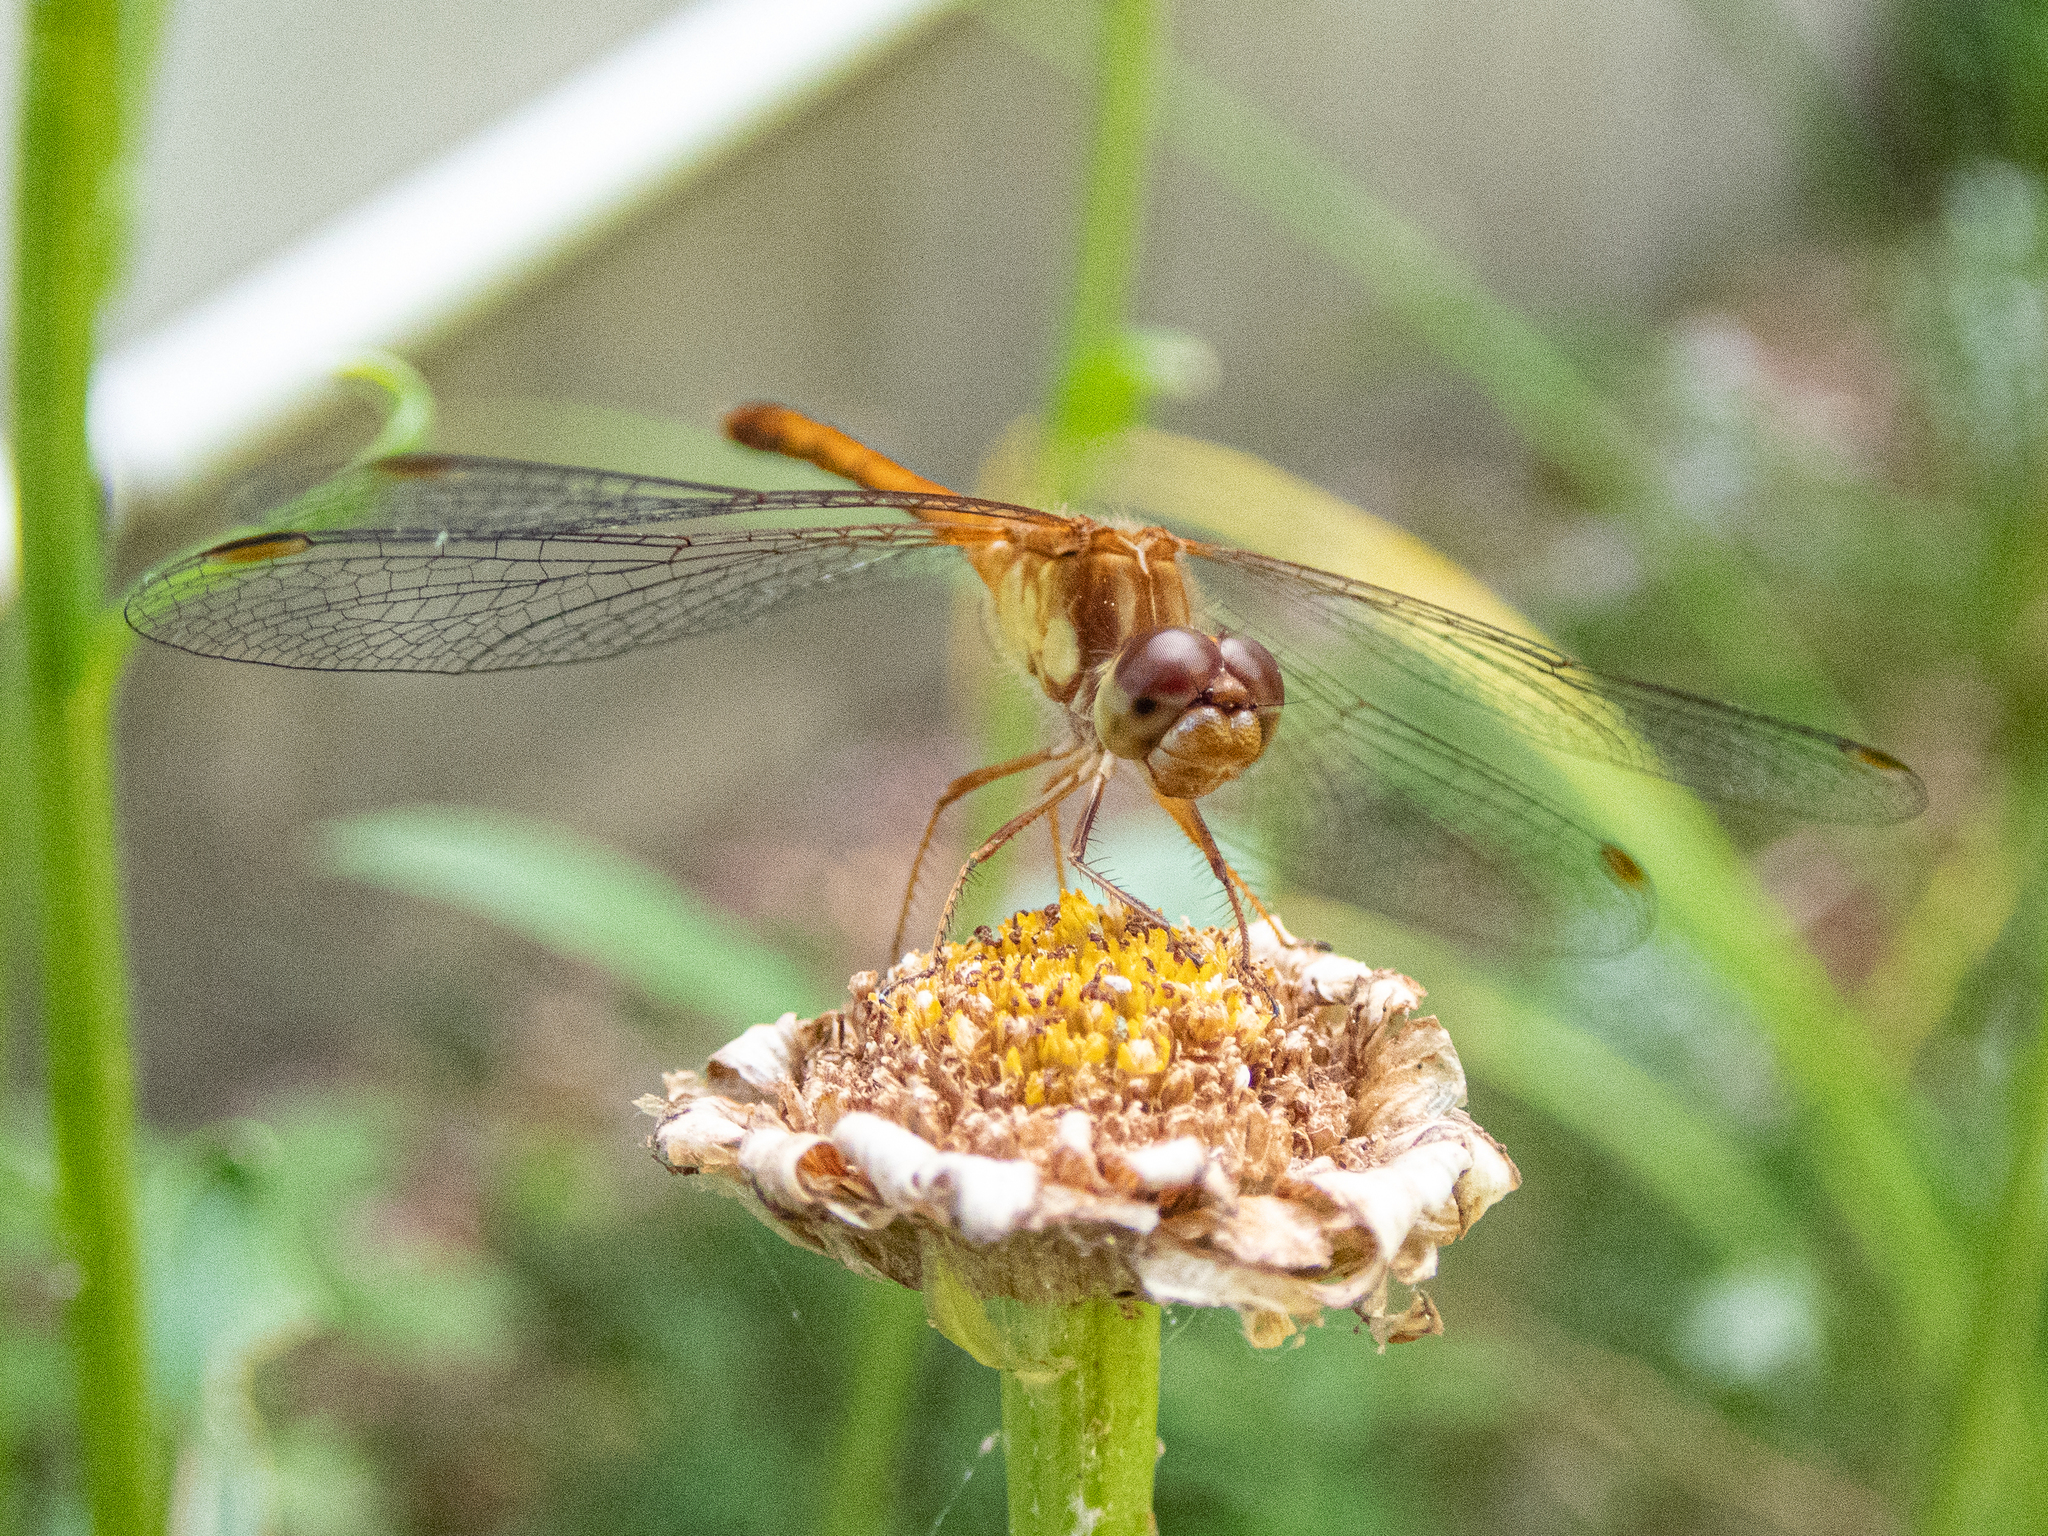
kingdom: Animalia
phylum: Arthropoda
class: Insecta
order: Odonata
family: Libellulidae
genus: Sympetrum
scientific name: Sympetrum vicinum
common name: Autumn meadowhawk
